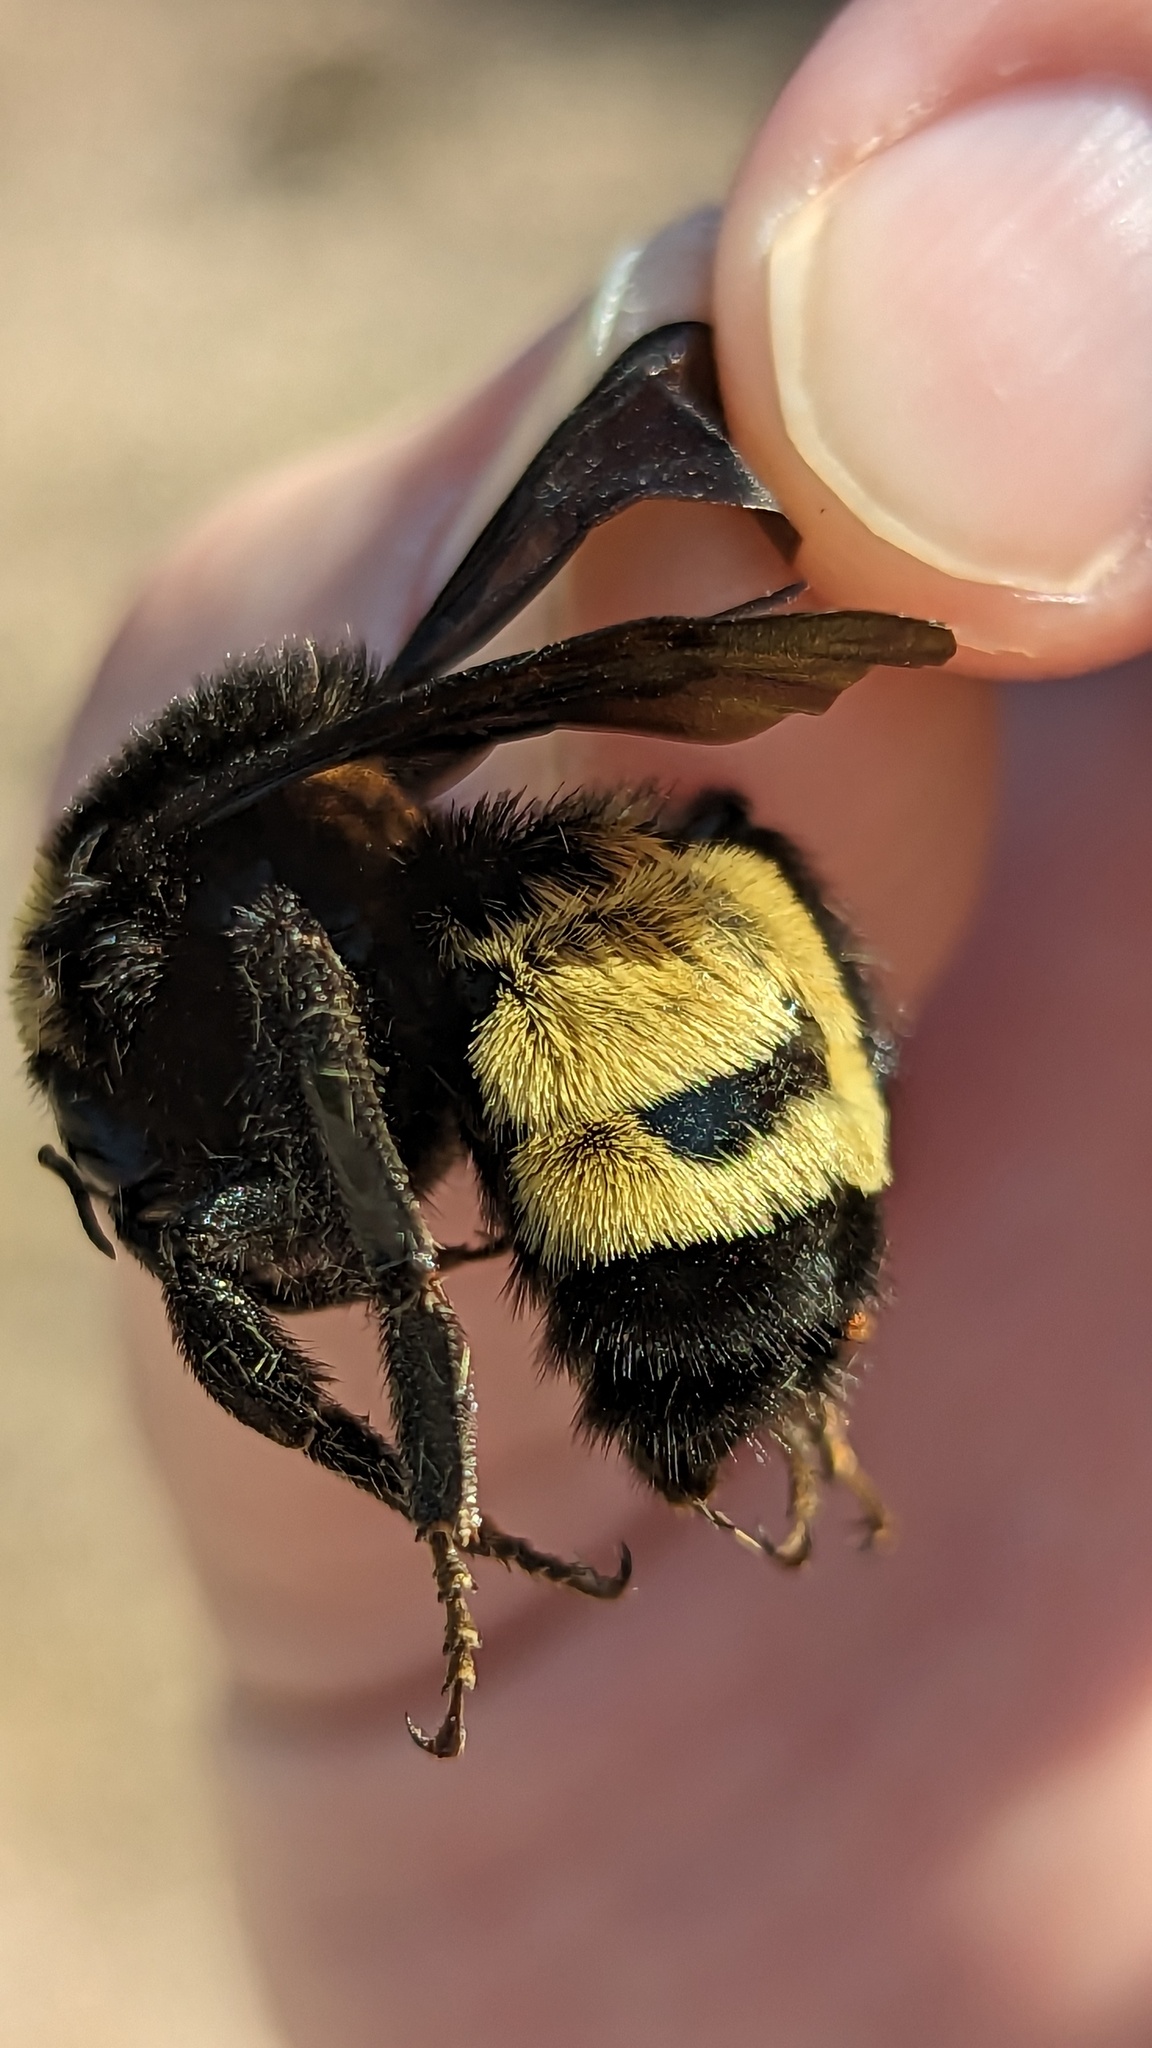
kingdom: Animalia
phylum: Arthropoda
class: Insecta
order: Hymenoptera
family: Apidae
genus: Bombus
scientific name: Bombus pensylvanicus
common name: Bumble bee
